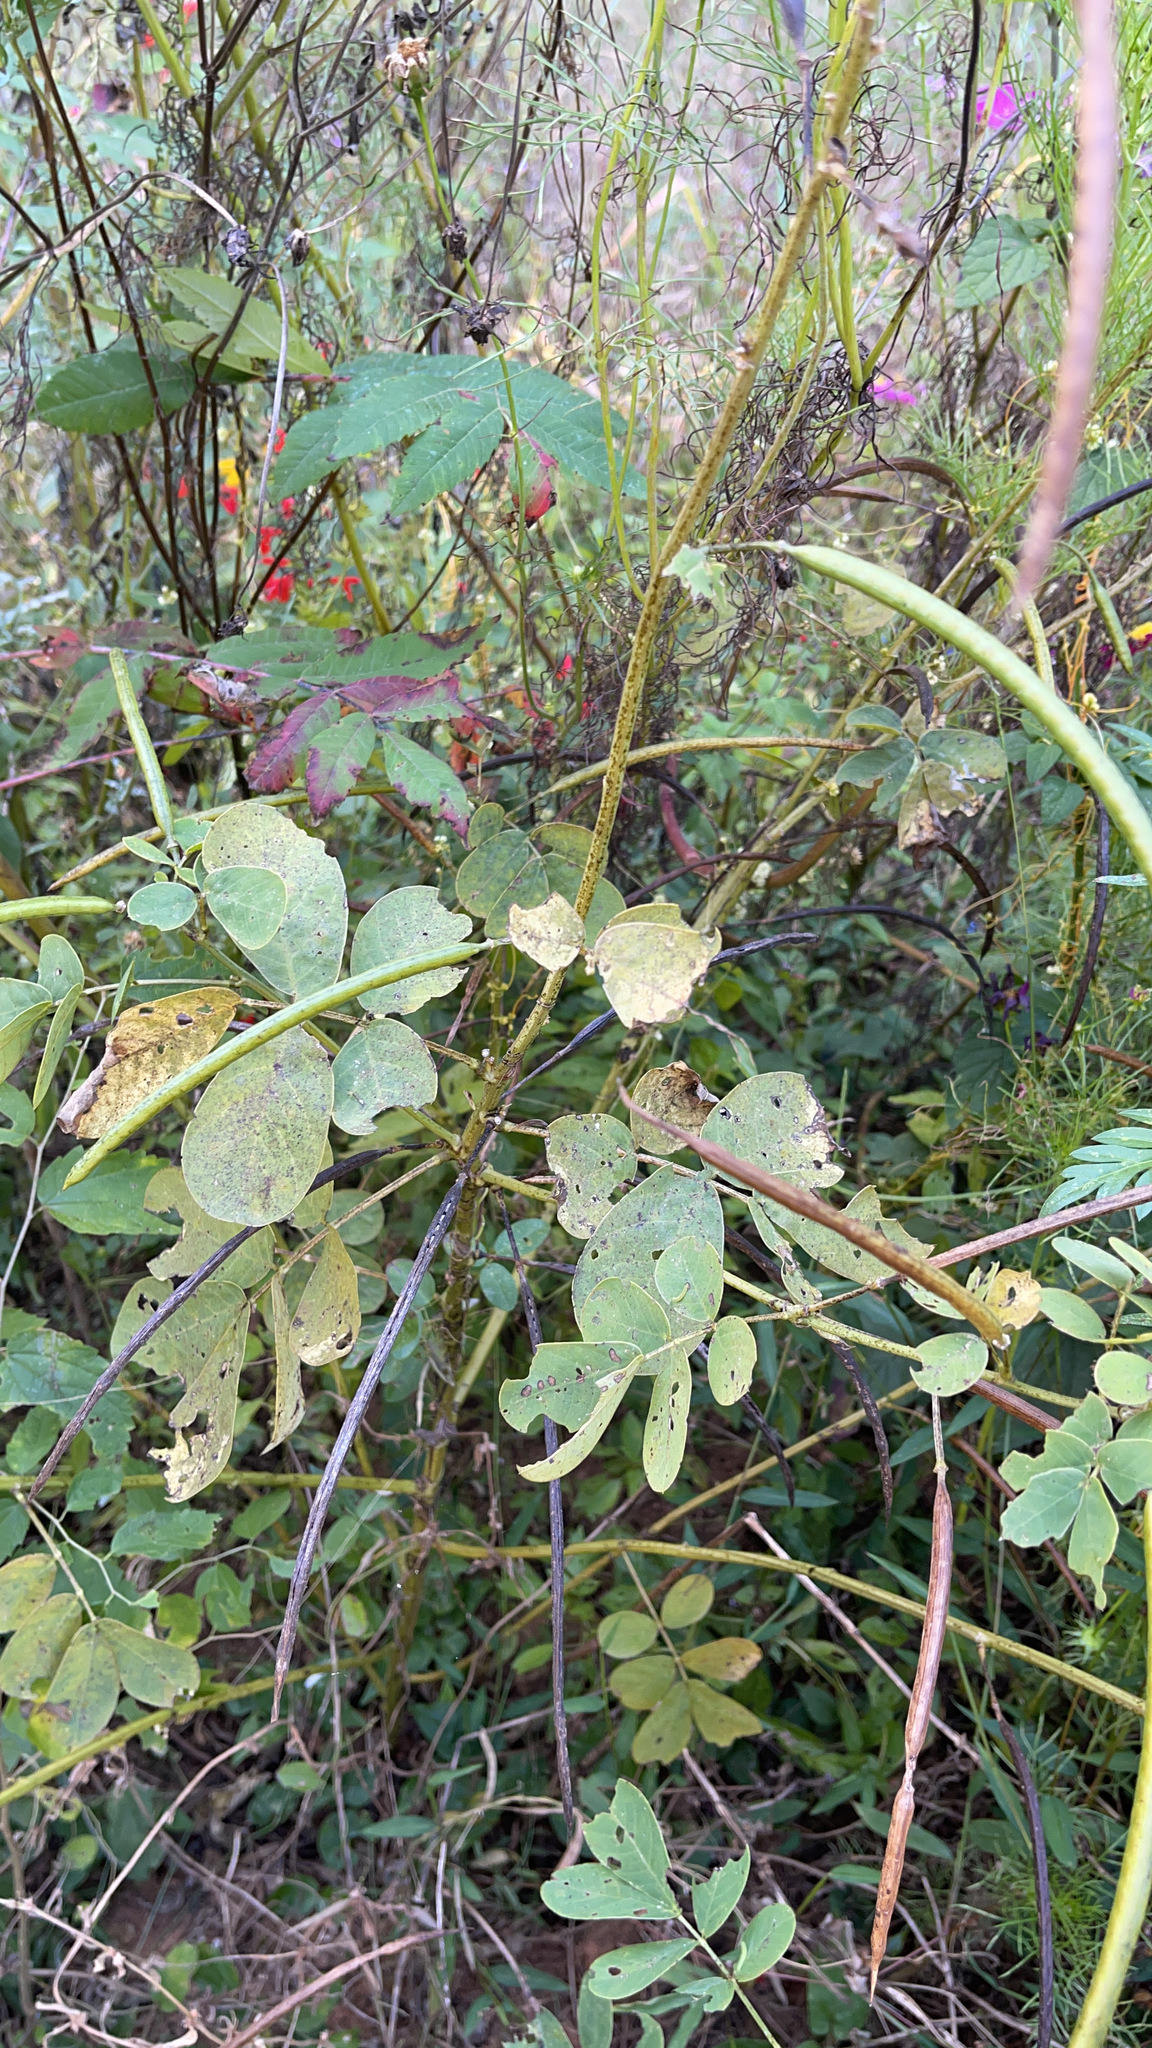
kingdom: Plantae
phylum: Tracheophyta
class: Magnoliopsida
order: Fabales
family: Fabaceae
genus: Senna
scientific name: Senna obtusifolia
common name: Java-bean
